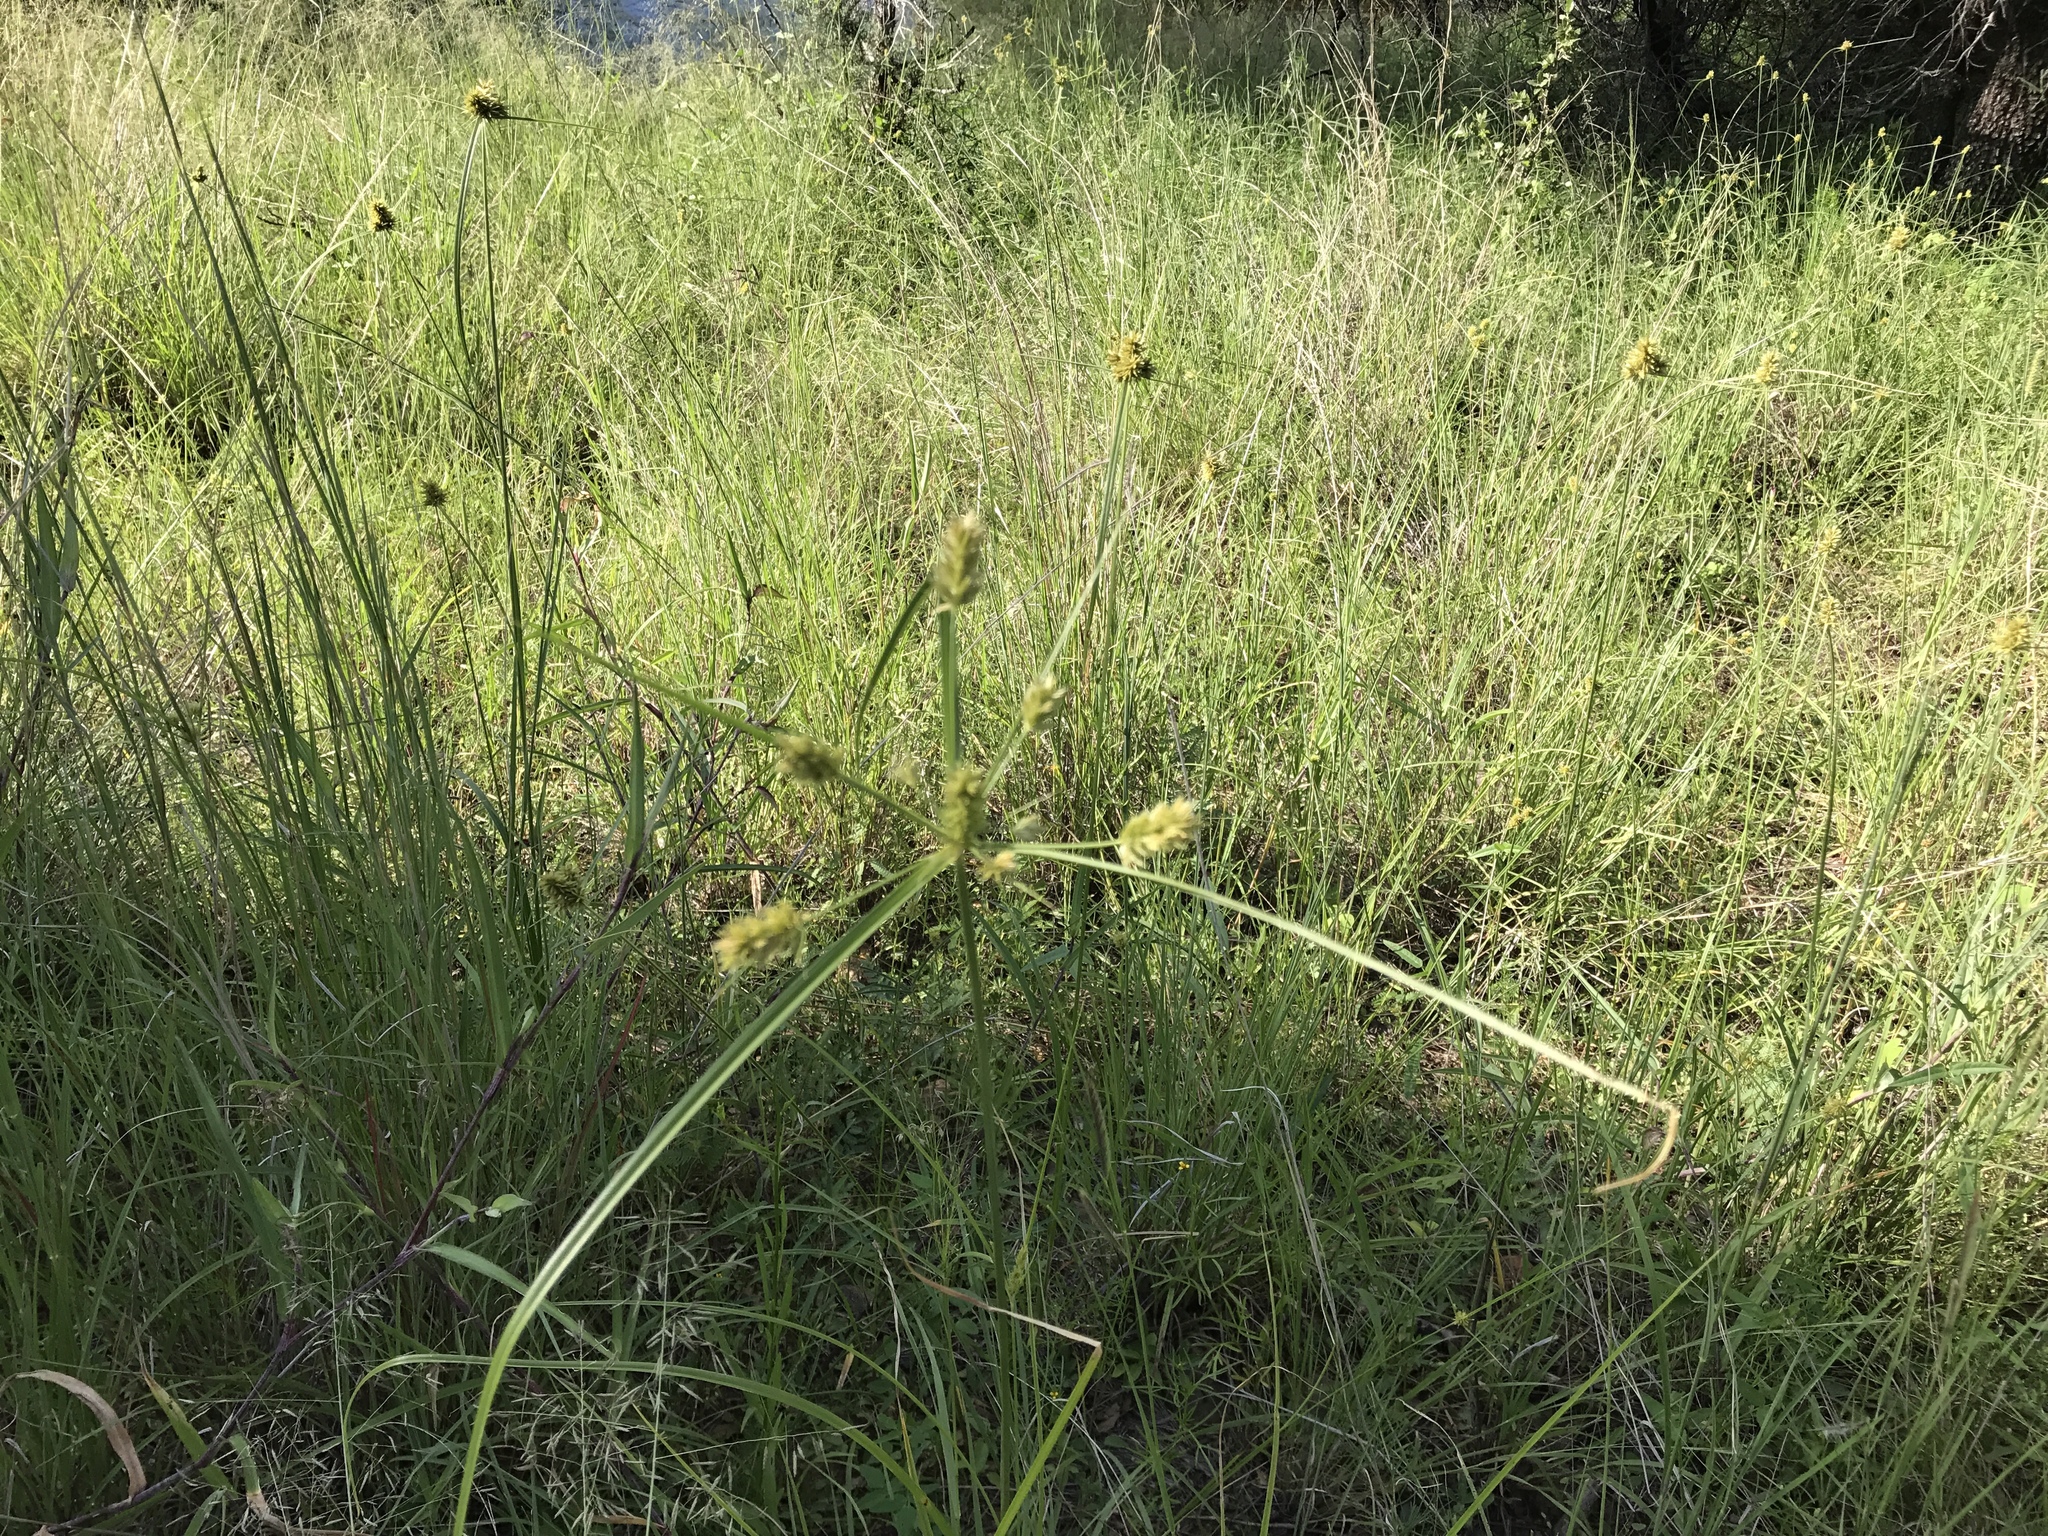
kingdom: Plantae
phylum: Tracheophyta
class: Liliopsida
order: Poales
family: Cyperaceae
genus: Cyperus
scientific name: Cyperus dipsaceus
